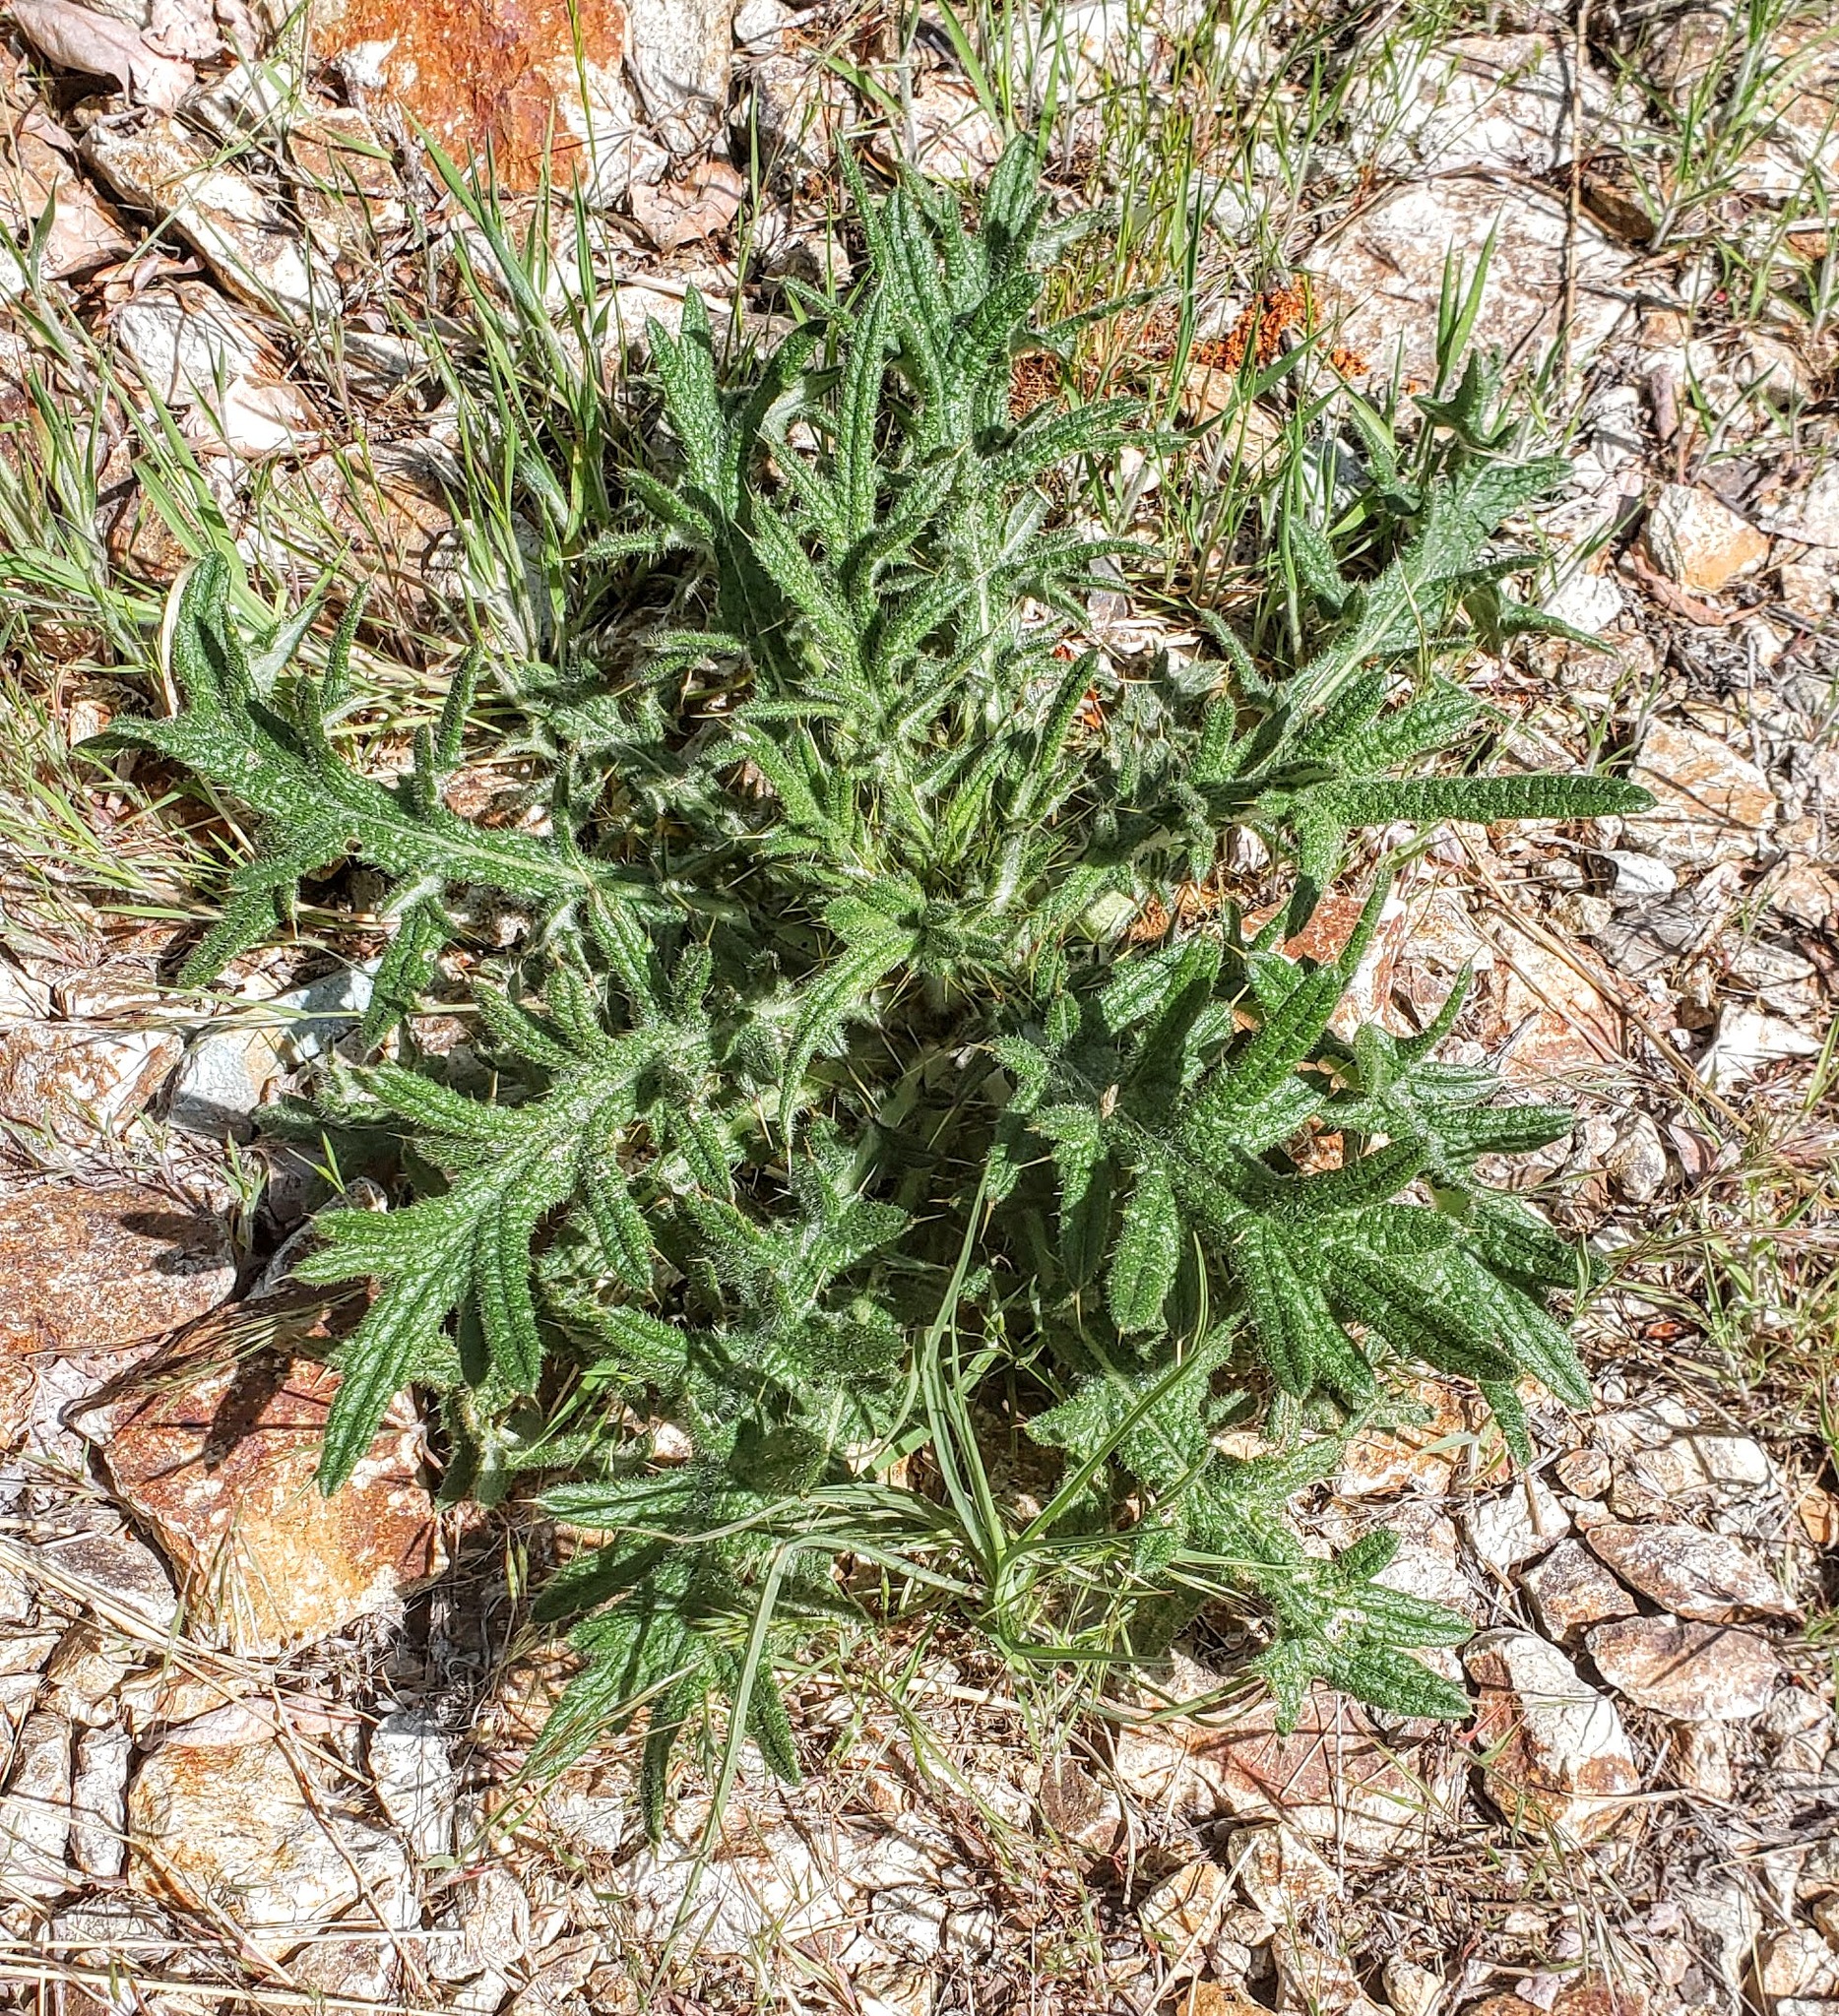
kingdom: Plantae
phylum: Tracheophyta
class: Magnoliopsida
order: Asterales
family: Asteraceae
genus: Cirsium
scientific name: Cirsium vulgare
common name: Bull thistle
